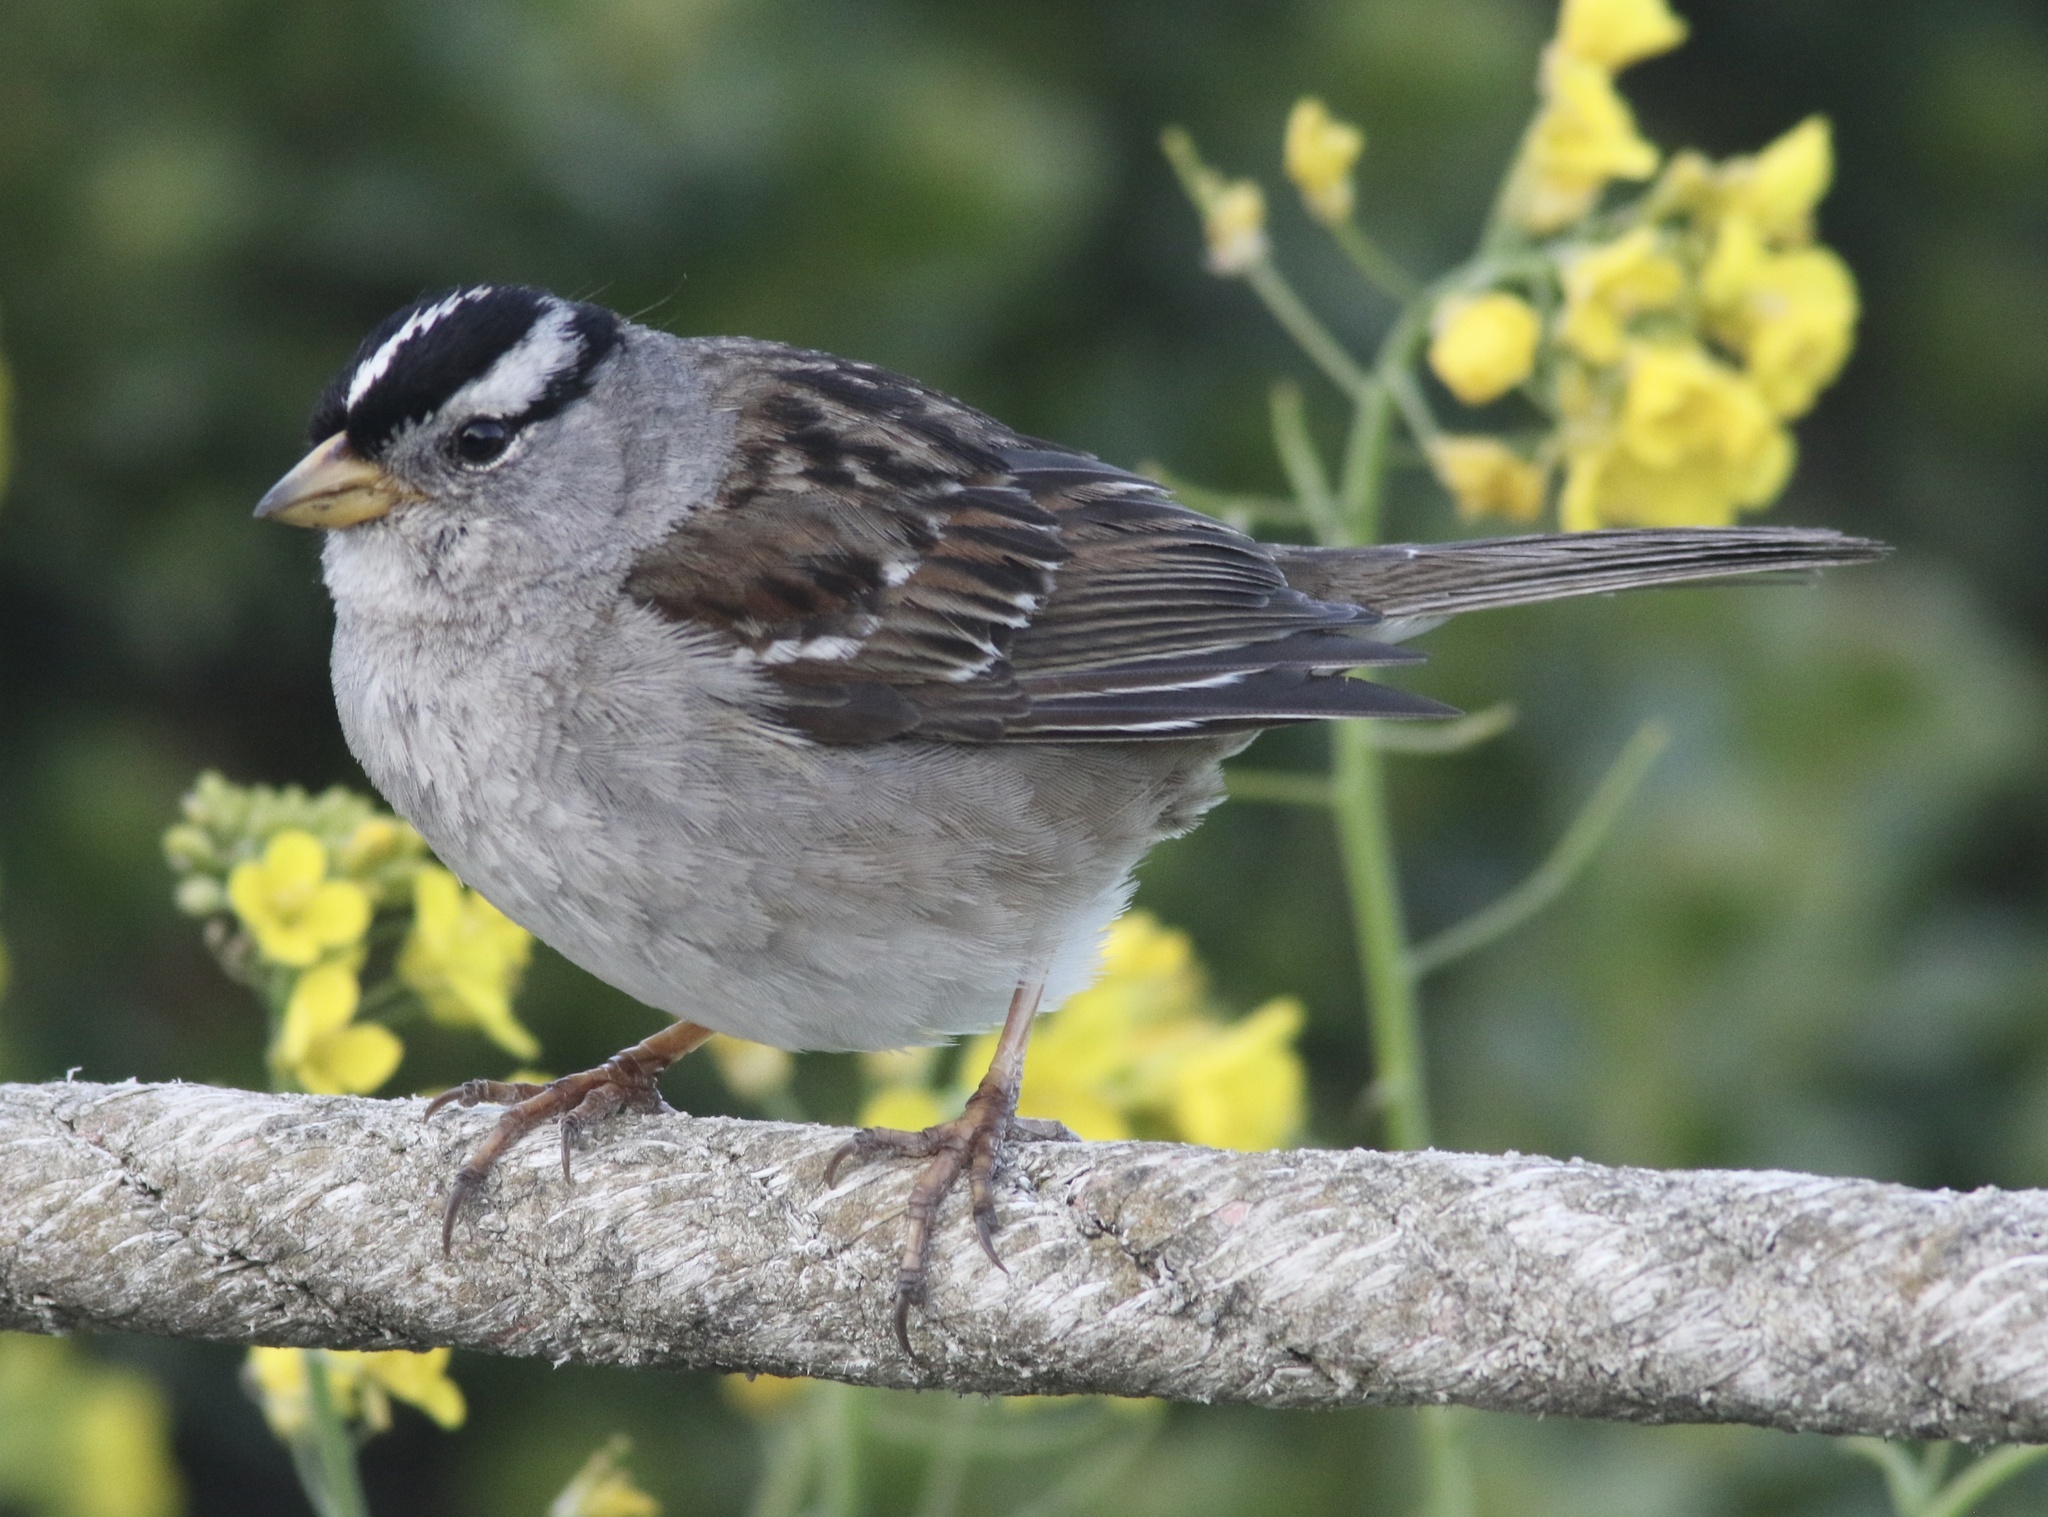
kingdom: Animalia
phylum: Chordata
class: Aves
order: Passeriformes
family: Passerellidae
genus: Zonotrichia
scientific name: Zonotrichia leucophrys
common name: White-crowned sparrow
